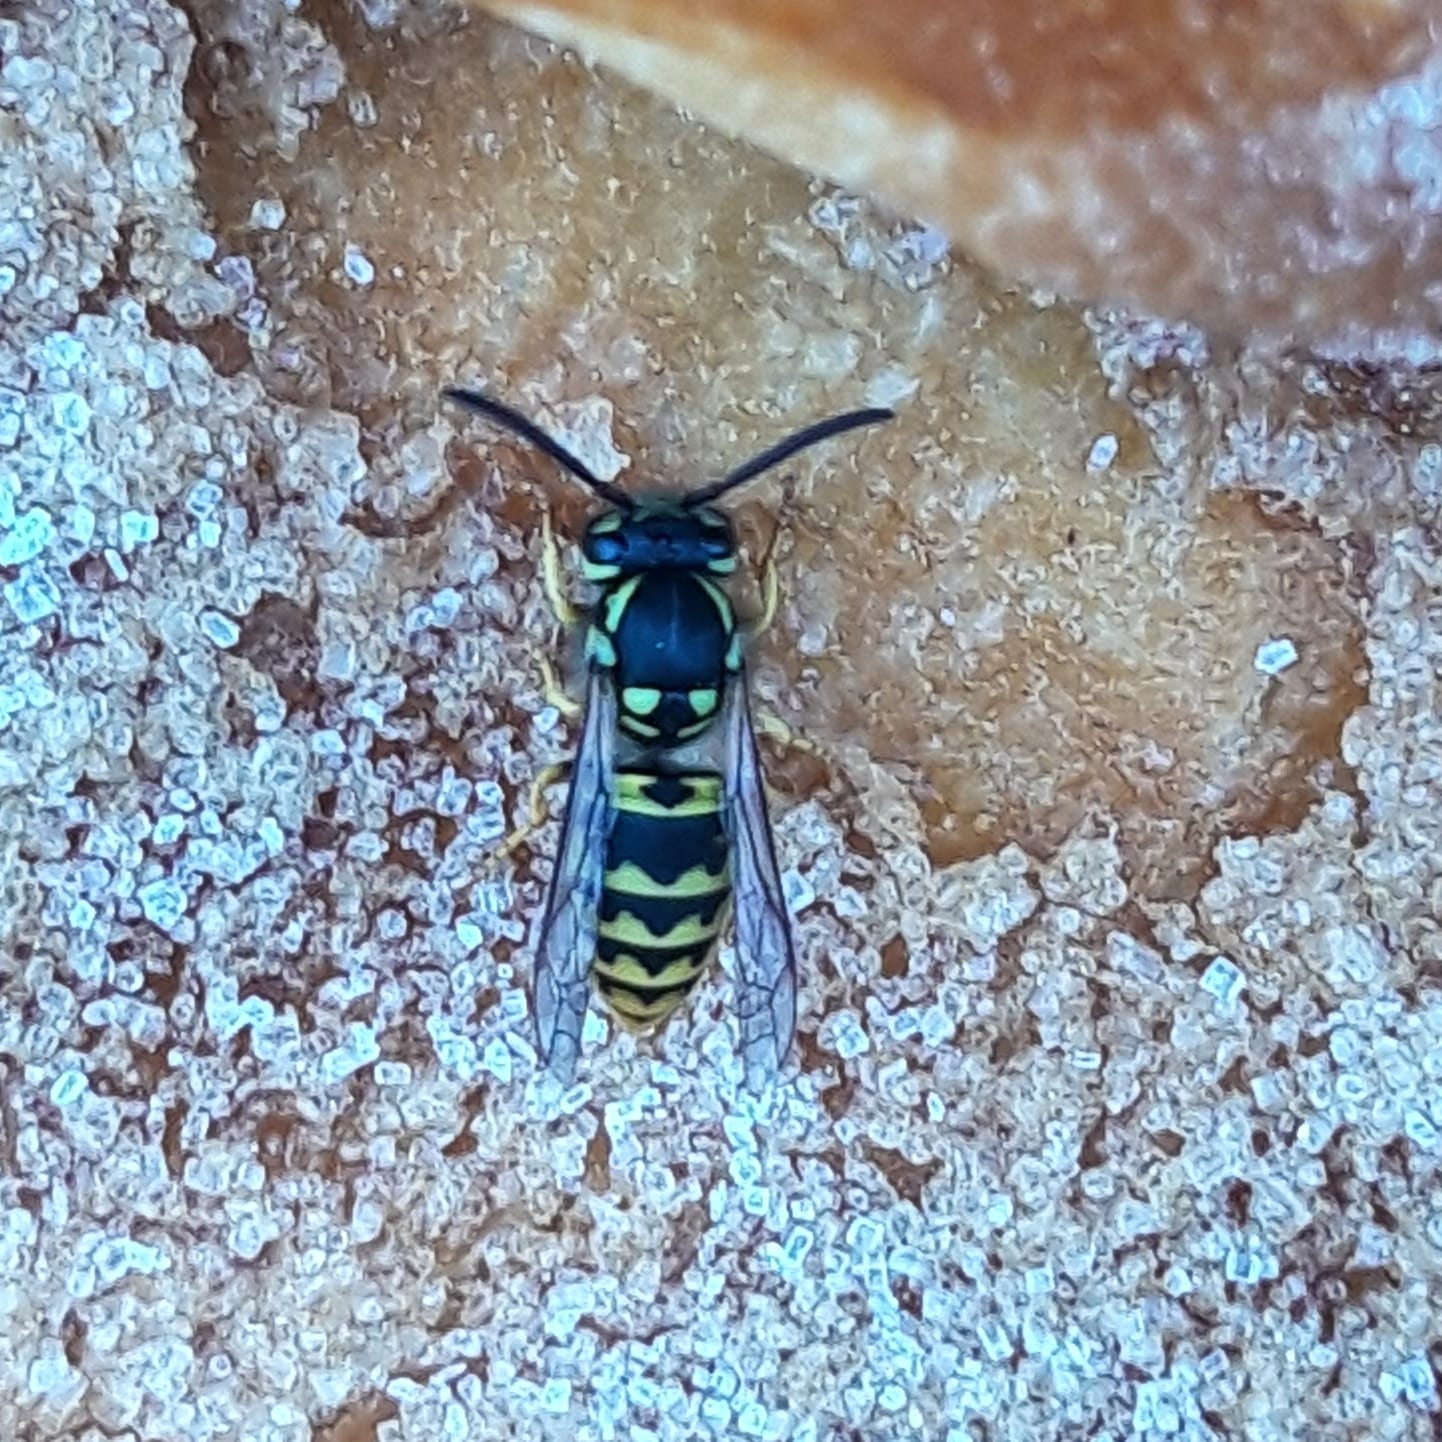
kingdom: Animalia
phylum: Arthropoda
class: Insecta
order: Hymenoptera
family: Vespidae
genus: Vespula
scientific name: Vespula germanica
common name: German wasp
